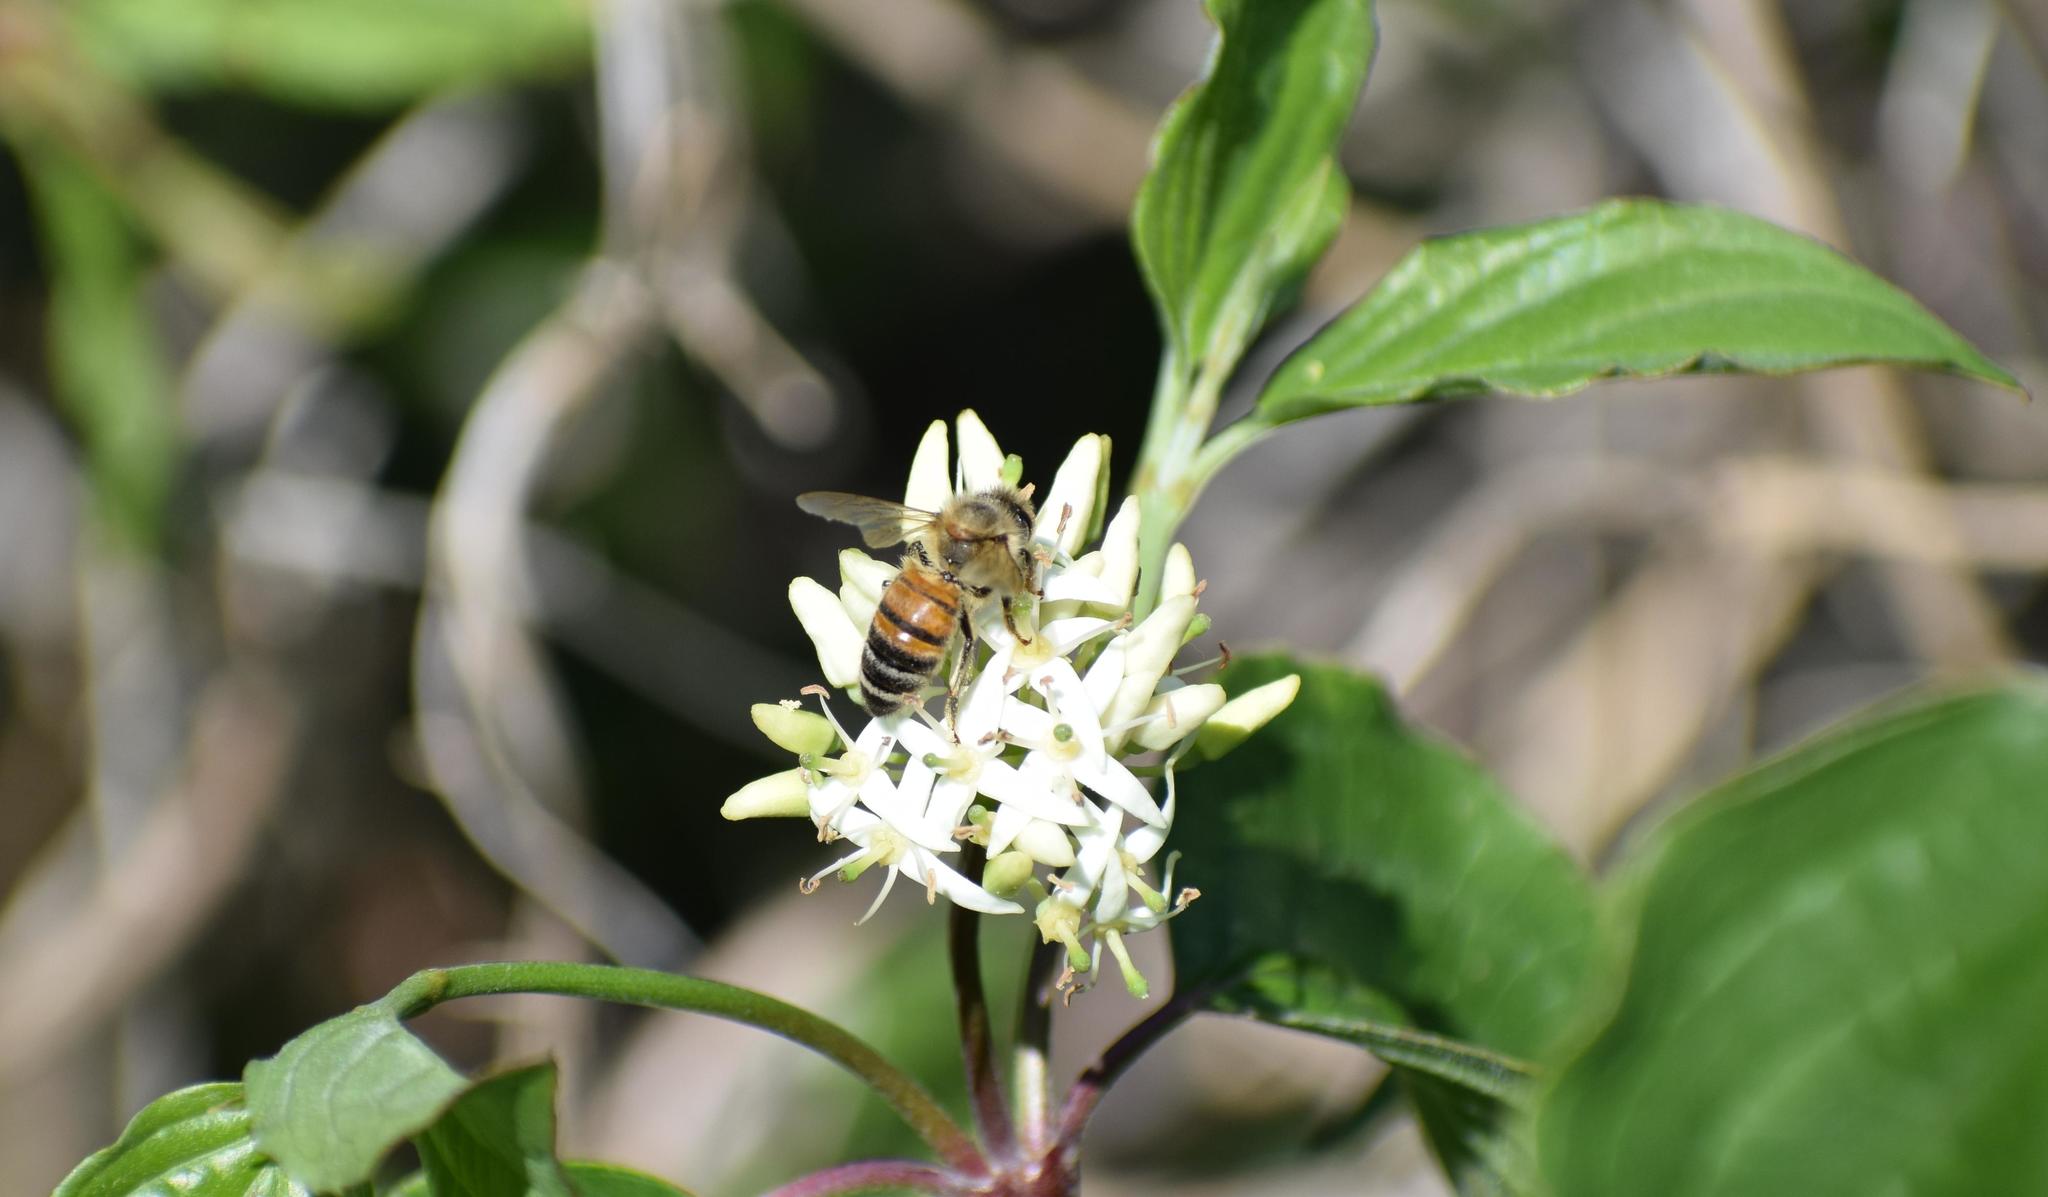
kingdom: Animalia
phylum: Arthropoda
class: Insecta
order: Hymenoptera
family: Apidae
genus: Apis
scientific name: Apis mellifera
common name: Honey bee
